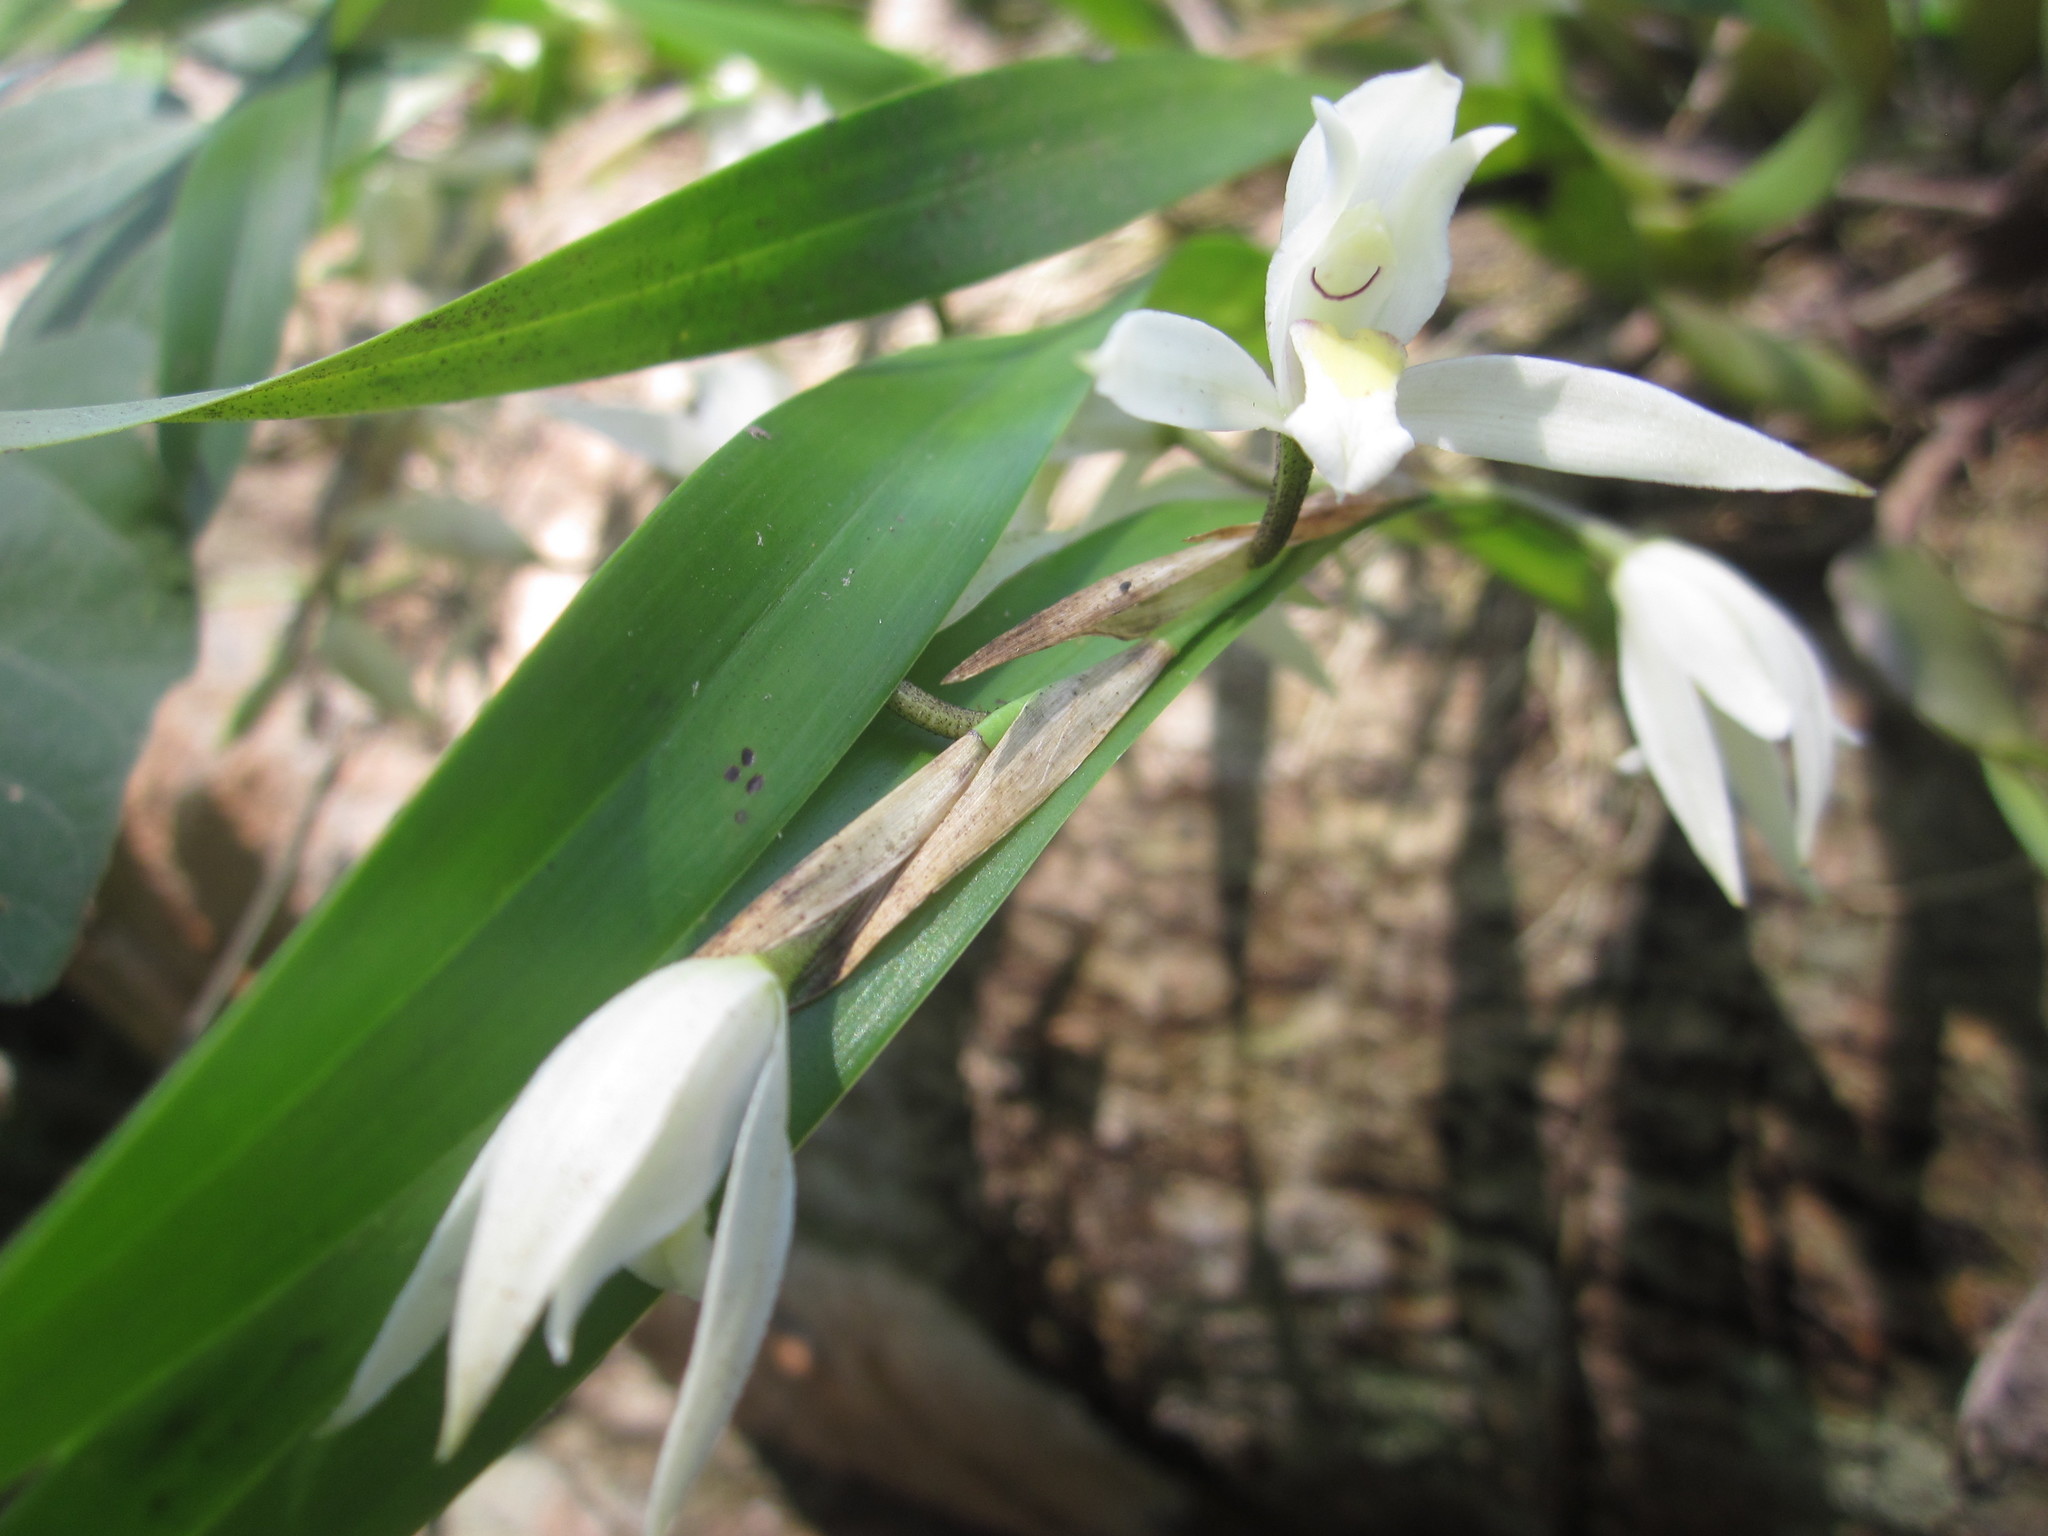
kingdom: Plantae
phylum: Tracheophyta
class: Liliopsida
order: Asparagales
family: Orchidaceae
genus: Nidema
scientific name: Nidema boothii
